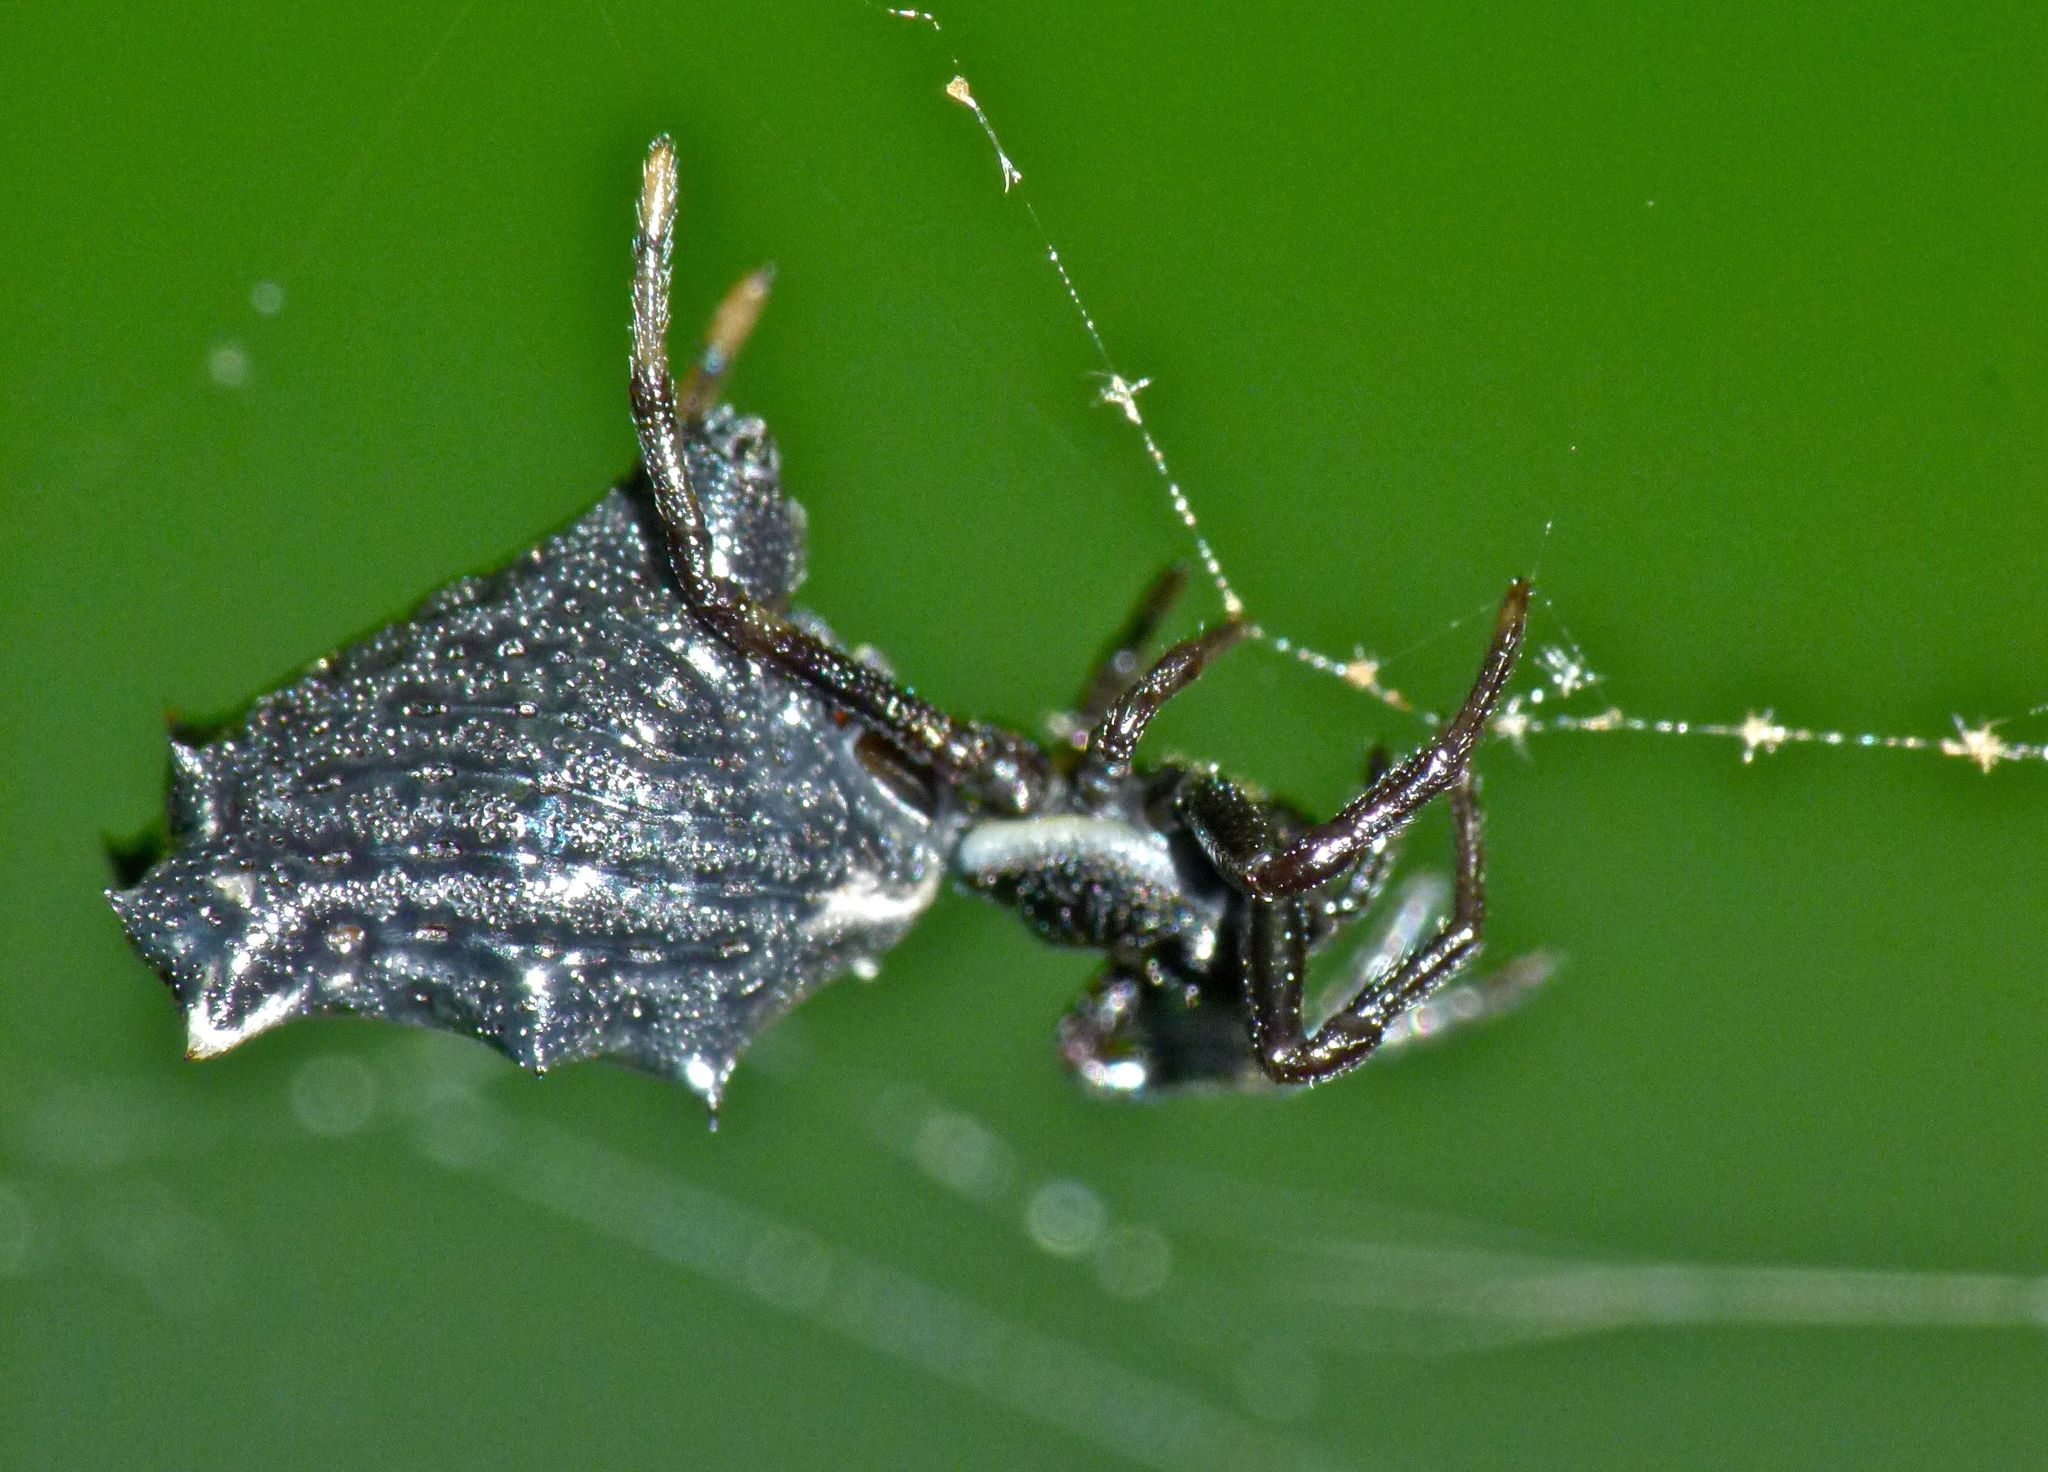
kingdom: Animalia
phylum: Arthropoda
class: Arachnida
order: Araneae
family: Araneidae
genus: Micrathena
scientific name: Micrathena gracilis
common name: Orb weavers
